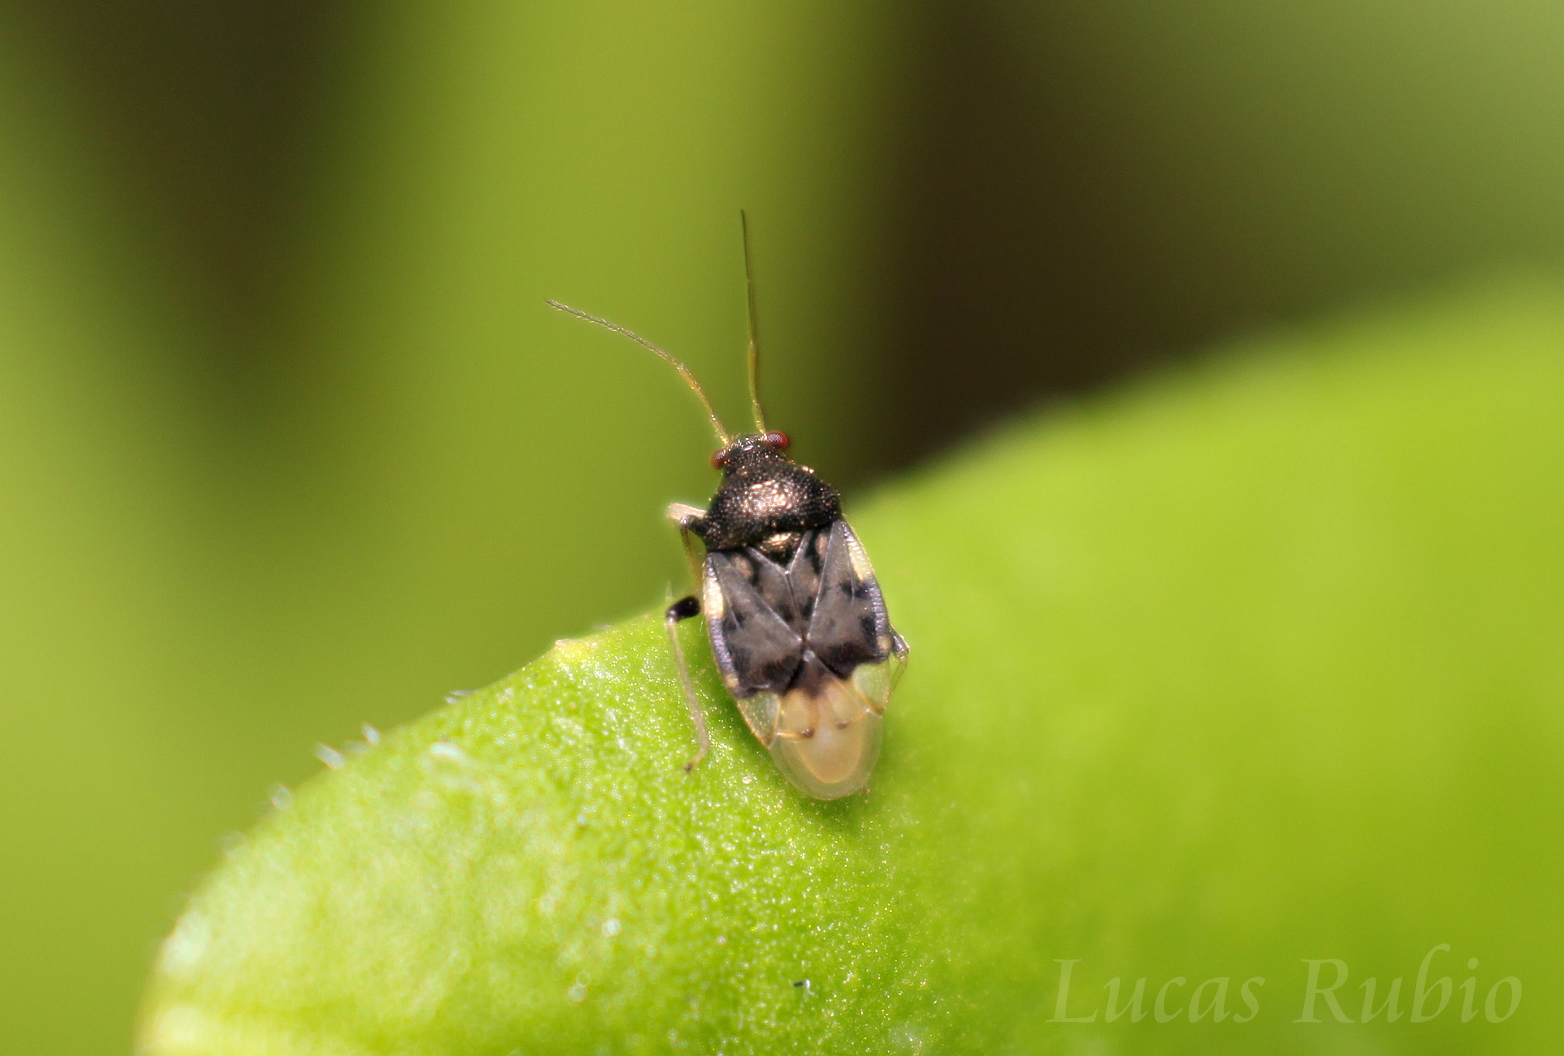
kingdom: Animalia
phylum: Arthropoda
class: Insecta
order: Hemiptera
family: Miridae
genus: Pycnoderes
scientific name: Pycnoderes albipes
